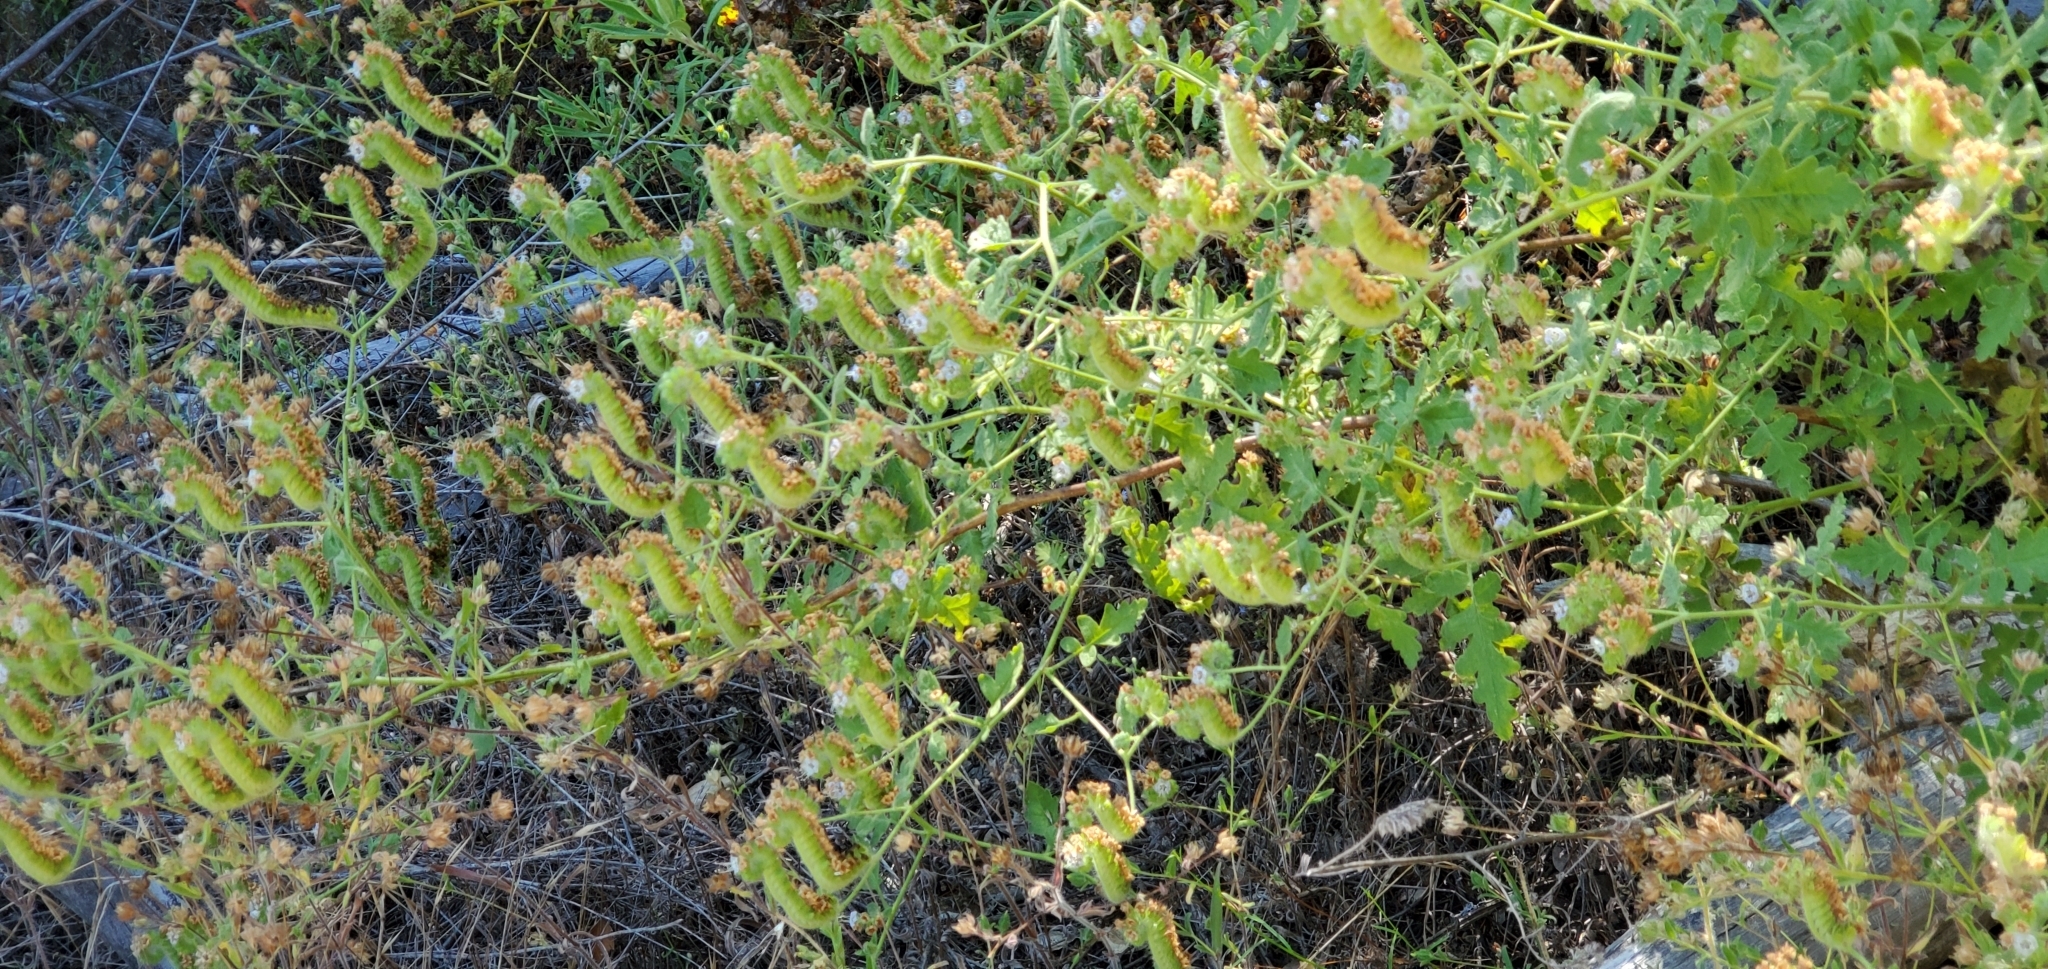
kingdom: Plantae
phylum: Tracheophyta
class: Magnoliopsida
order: Boraginales
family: Hydrophyllaceae
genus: Phacelia
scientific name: Phacelia ramosissima
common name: Branching phacelia
